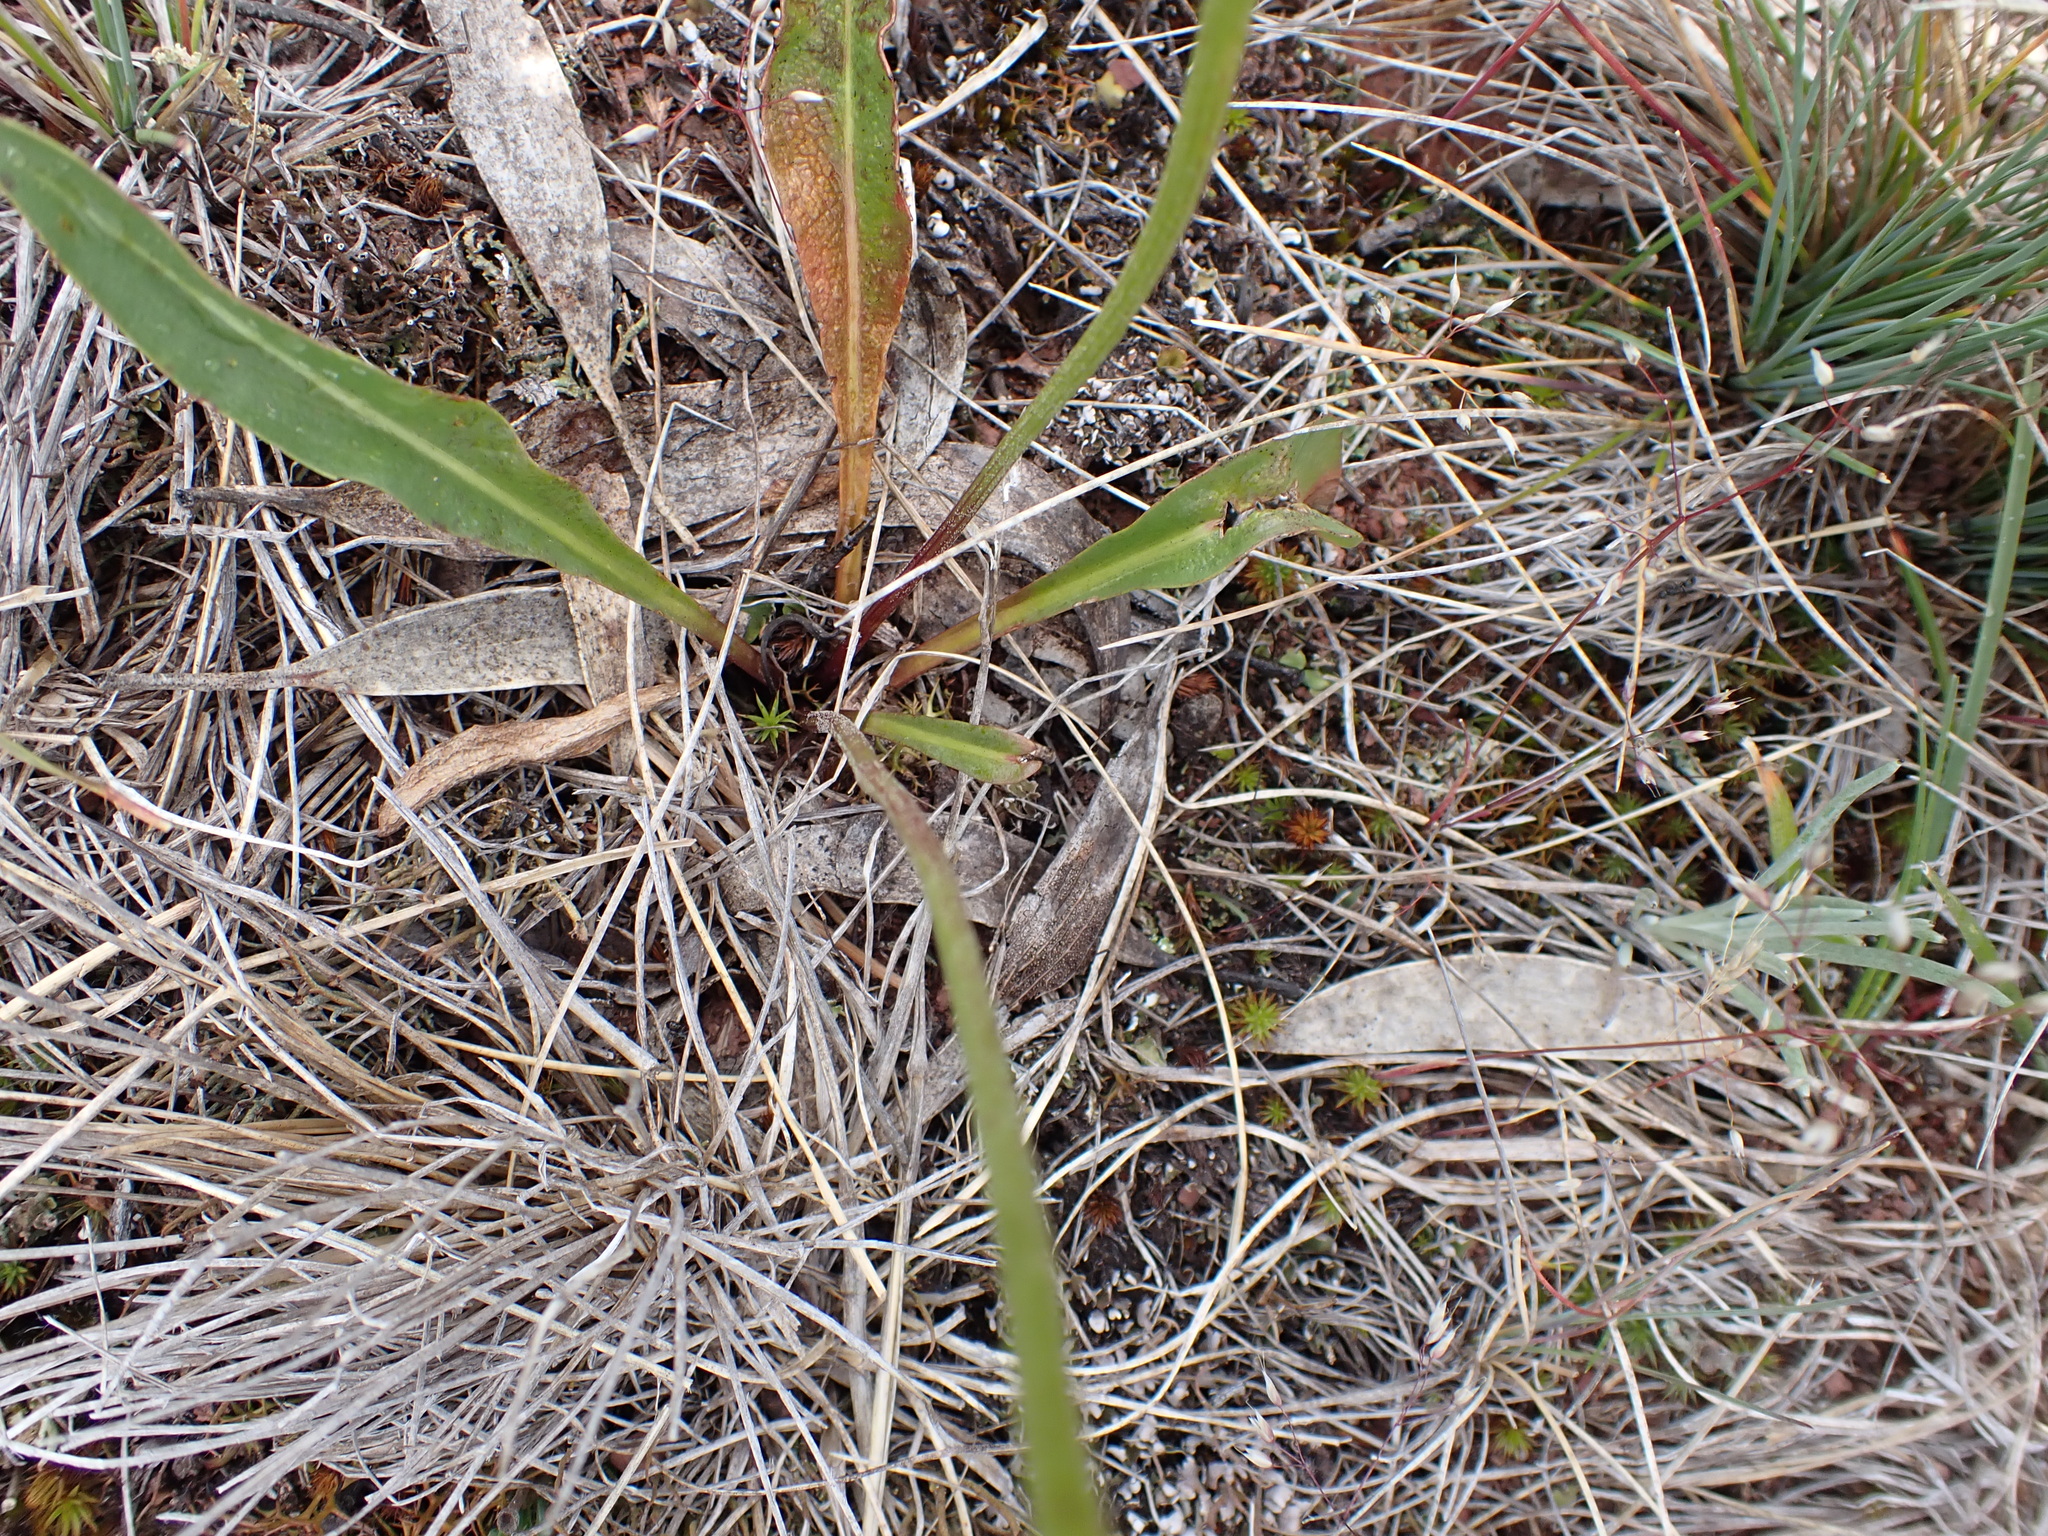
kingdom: Plantae
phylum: Tracheophyta
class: Magnoliopsida
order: Asterales
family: Asteraceae
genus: Microseris
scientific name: Microseris lanceolata
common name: Yam daisy
